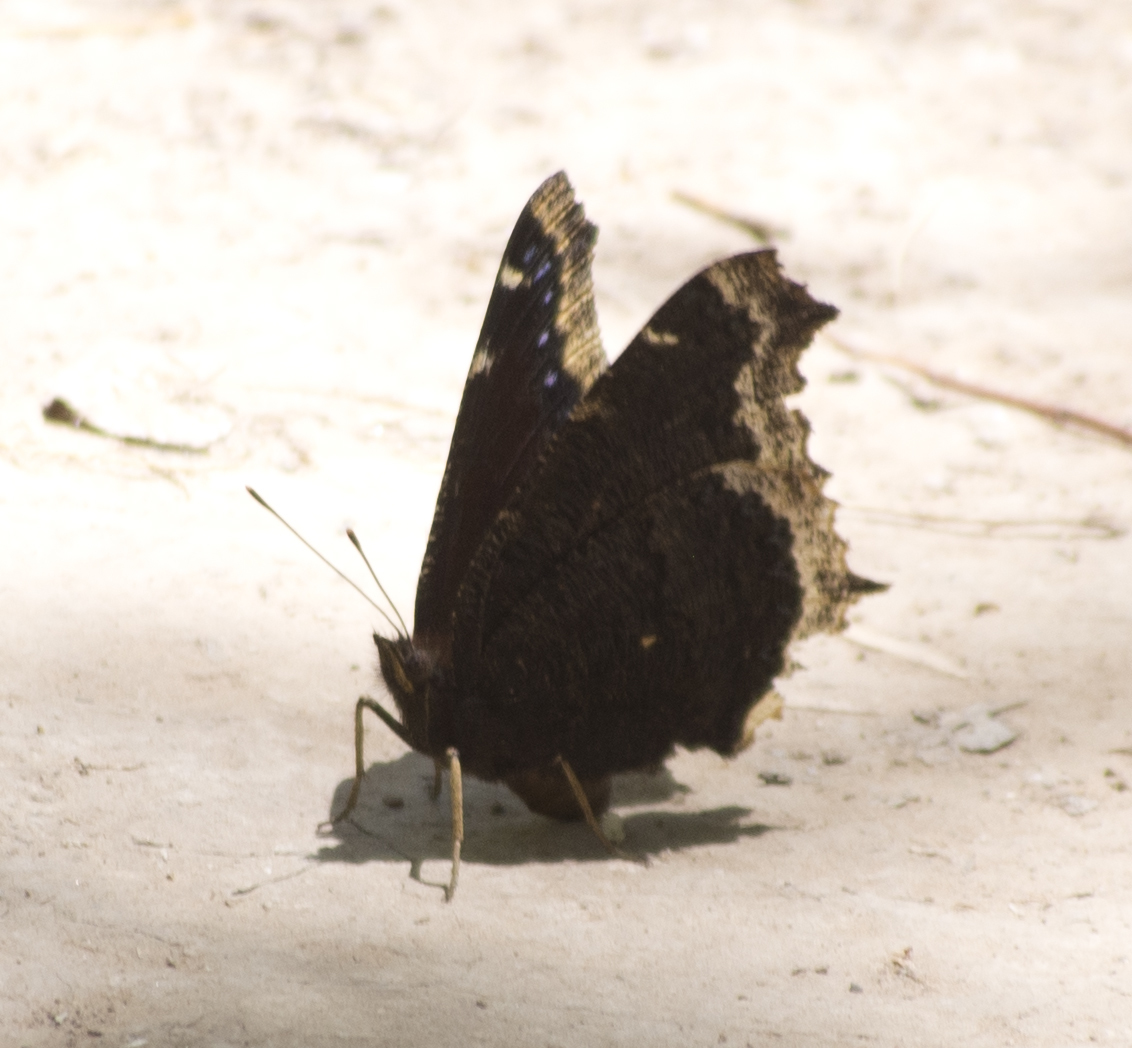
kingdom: Animalia
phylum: Arthropoda
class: Insecta
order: Lepidoptera
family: Nymphalidae
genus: Nymphalis
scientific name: Nymphalis antiopa
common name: Camberwell beauty
